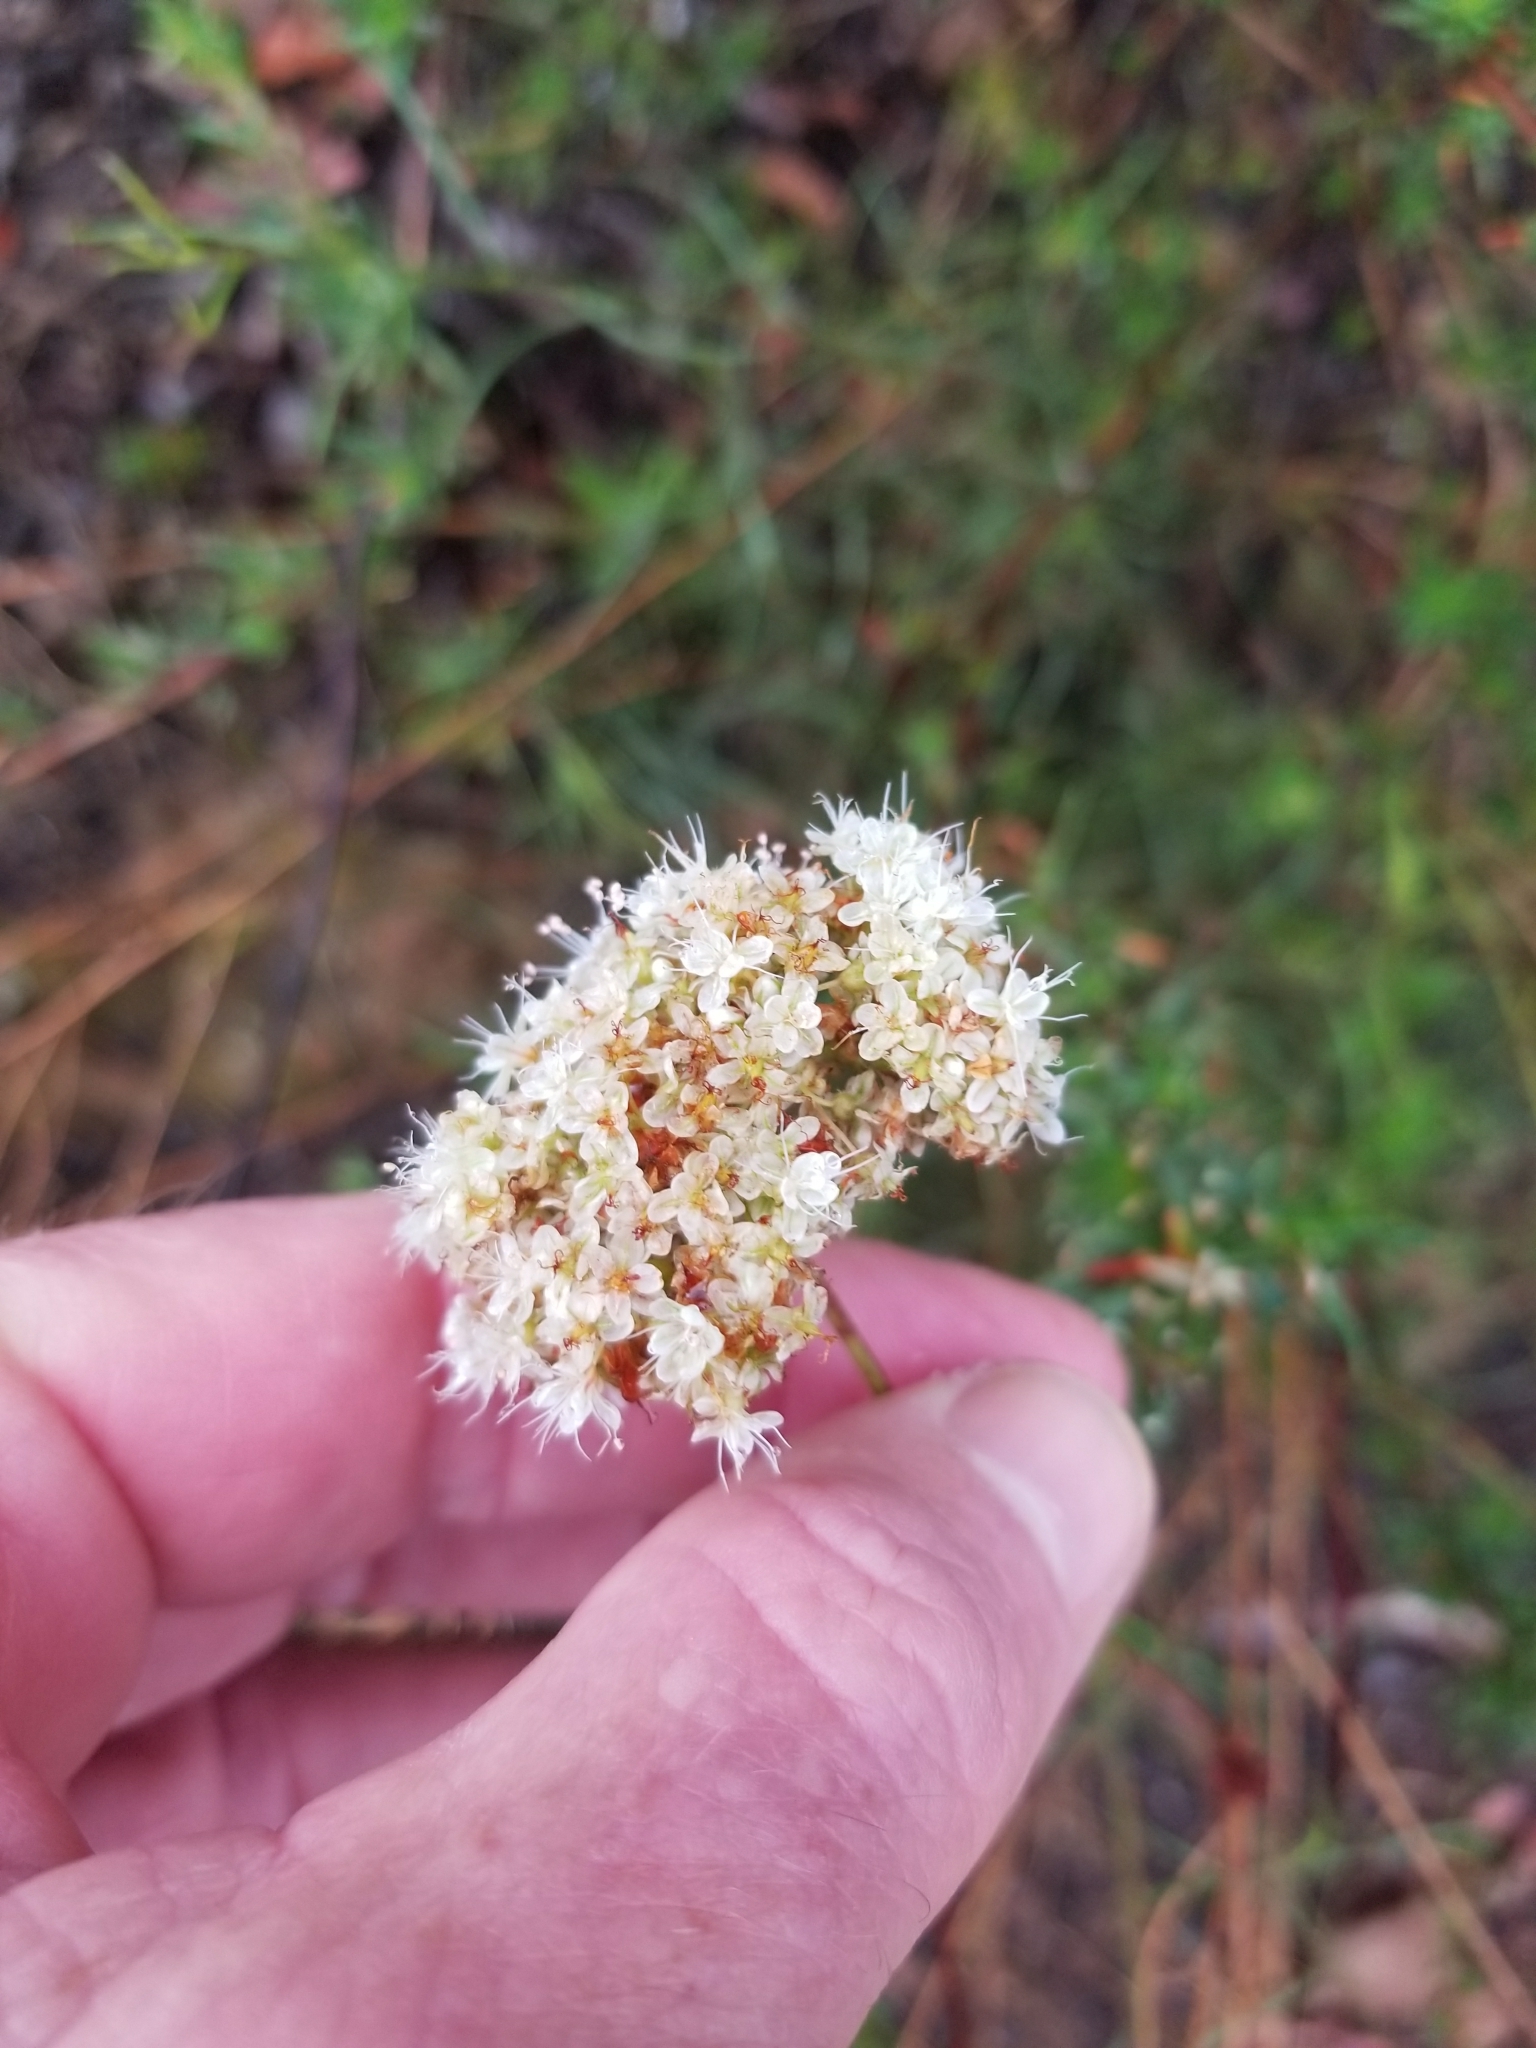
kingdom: Plantae
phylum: Tracheophyta
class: Magnoliopsida
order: Caryophyllales
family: Polygonaceae
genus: Eriogonum
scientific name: Eriogonum fasciculatum
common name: California wild buckwheat
